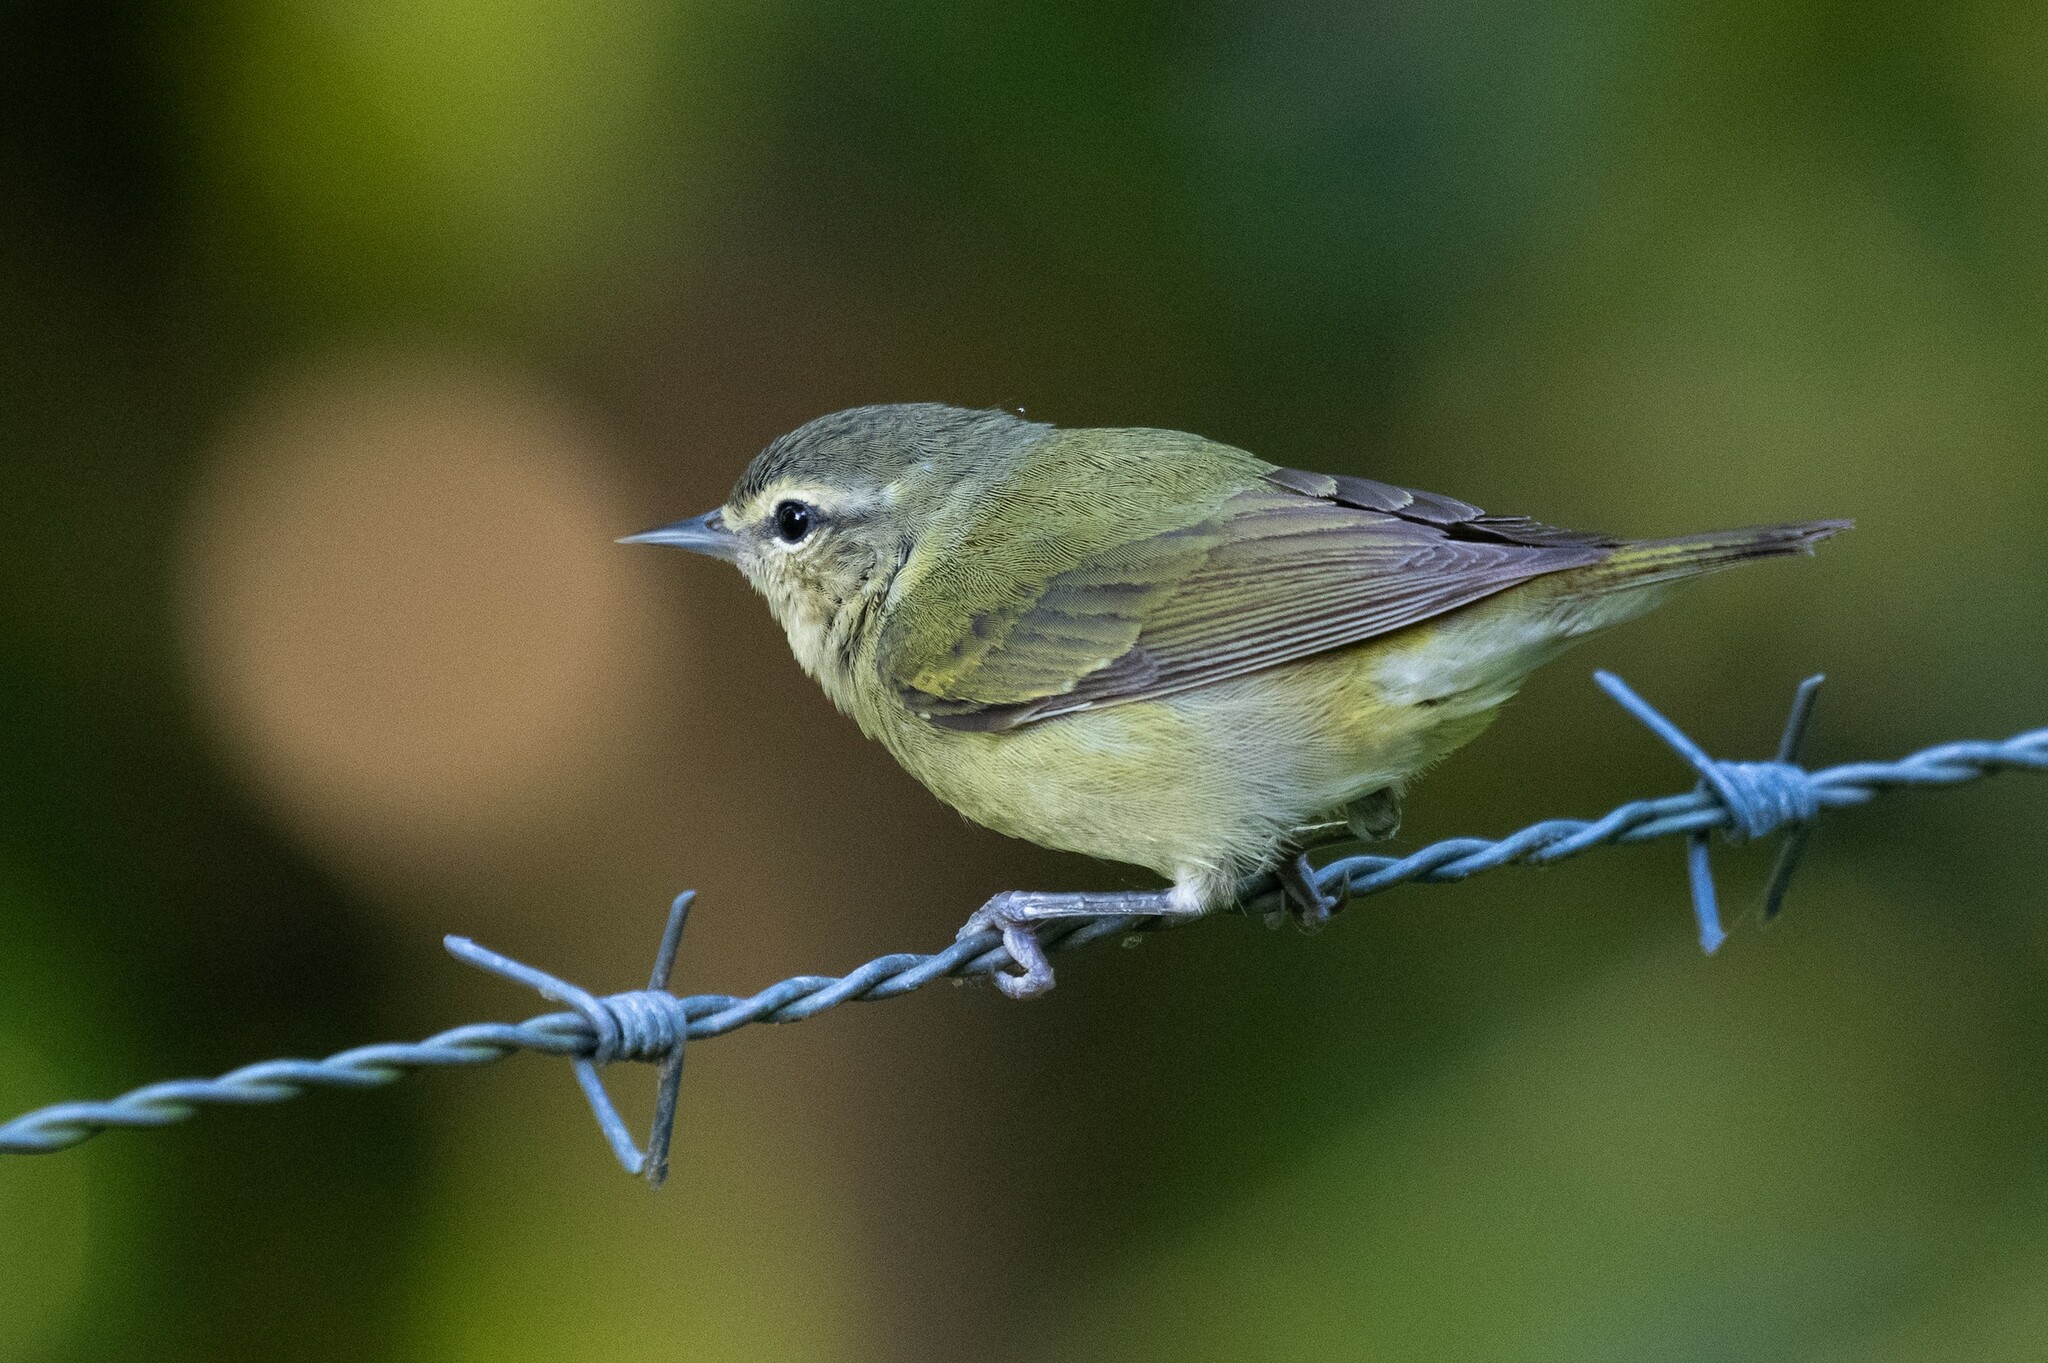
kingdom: Animalia
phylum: Chordata
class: Aves
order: Passeriformes
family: Parulidae
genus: Leiothlypis
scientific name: Leiothlypis peregrina
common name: Tennessee warbler
